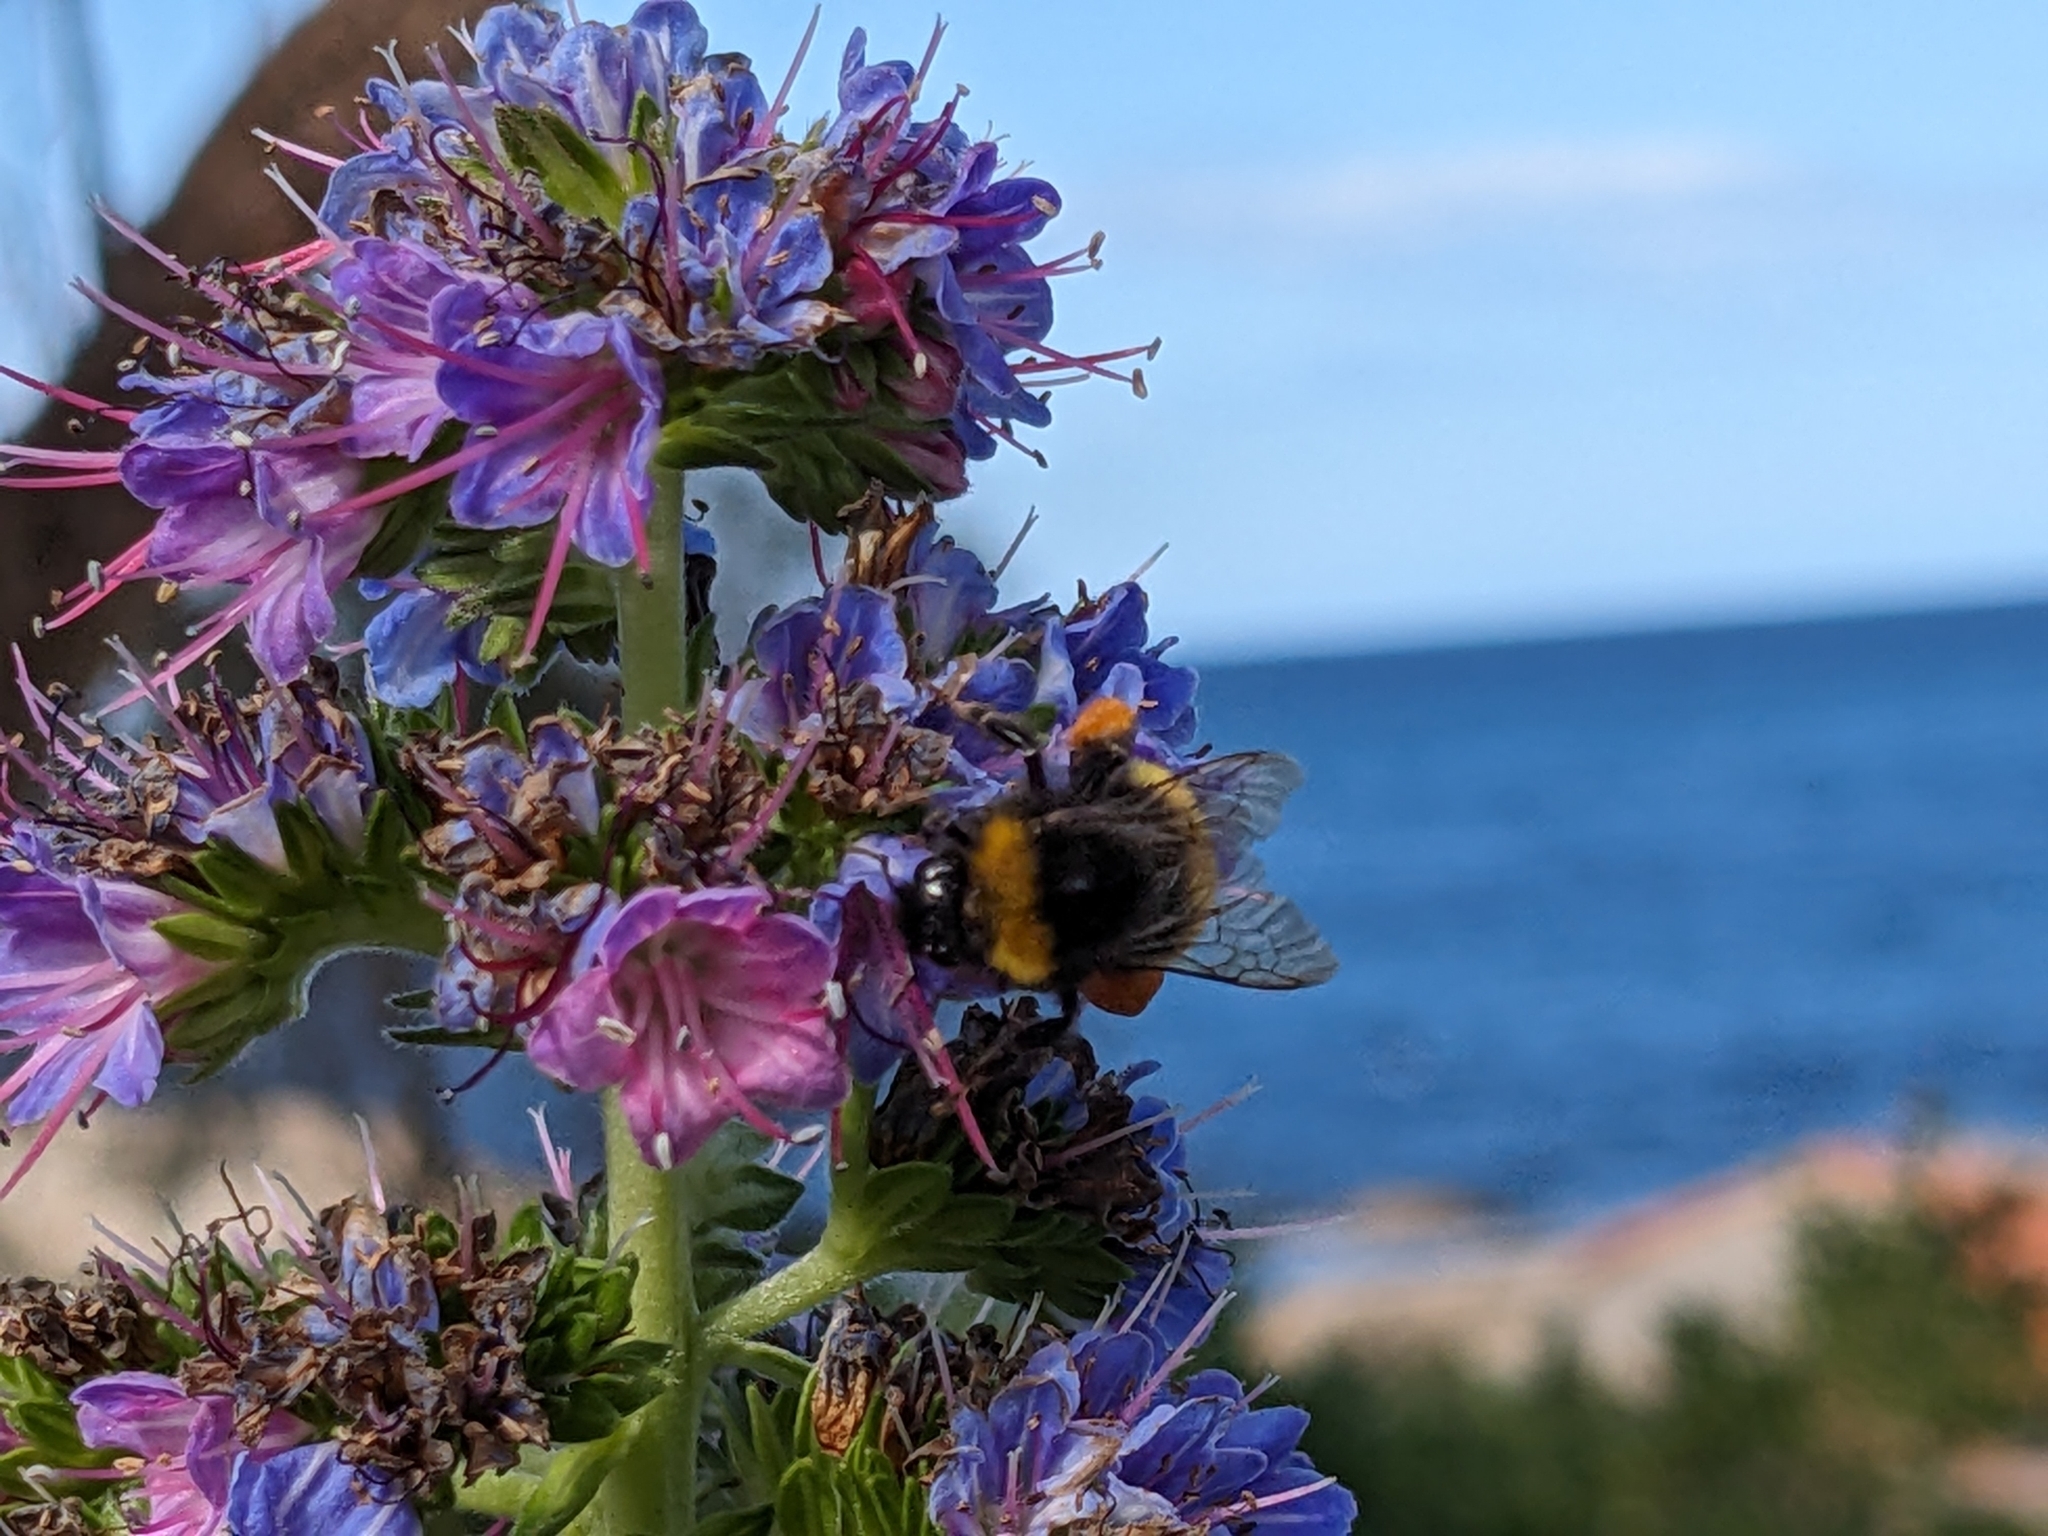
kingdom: Animalia
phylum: Arthropoda
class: Insecta
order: Hymenoptera
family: Apidae
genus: Bombus
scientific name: Bombus terrestris
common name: Buff-tailed bumblebee
